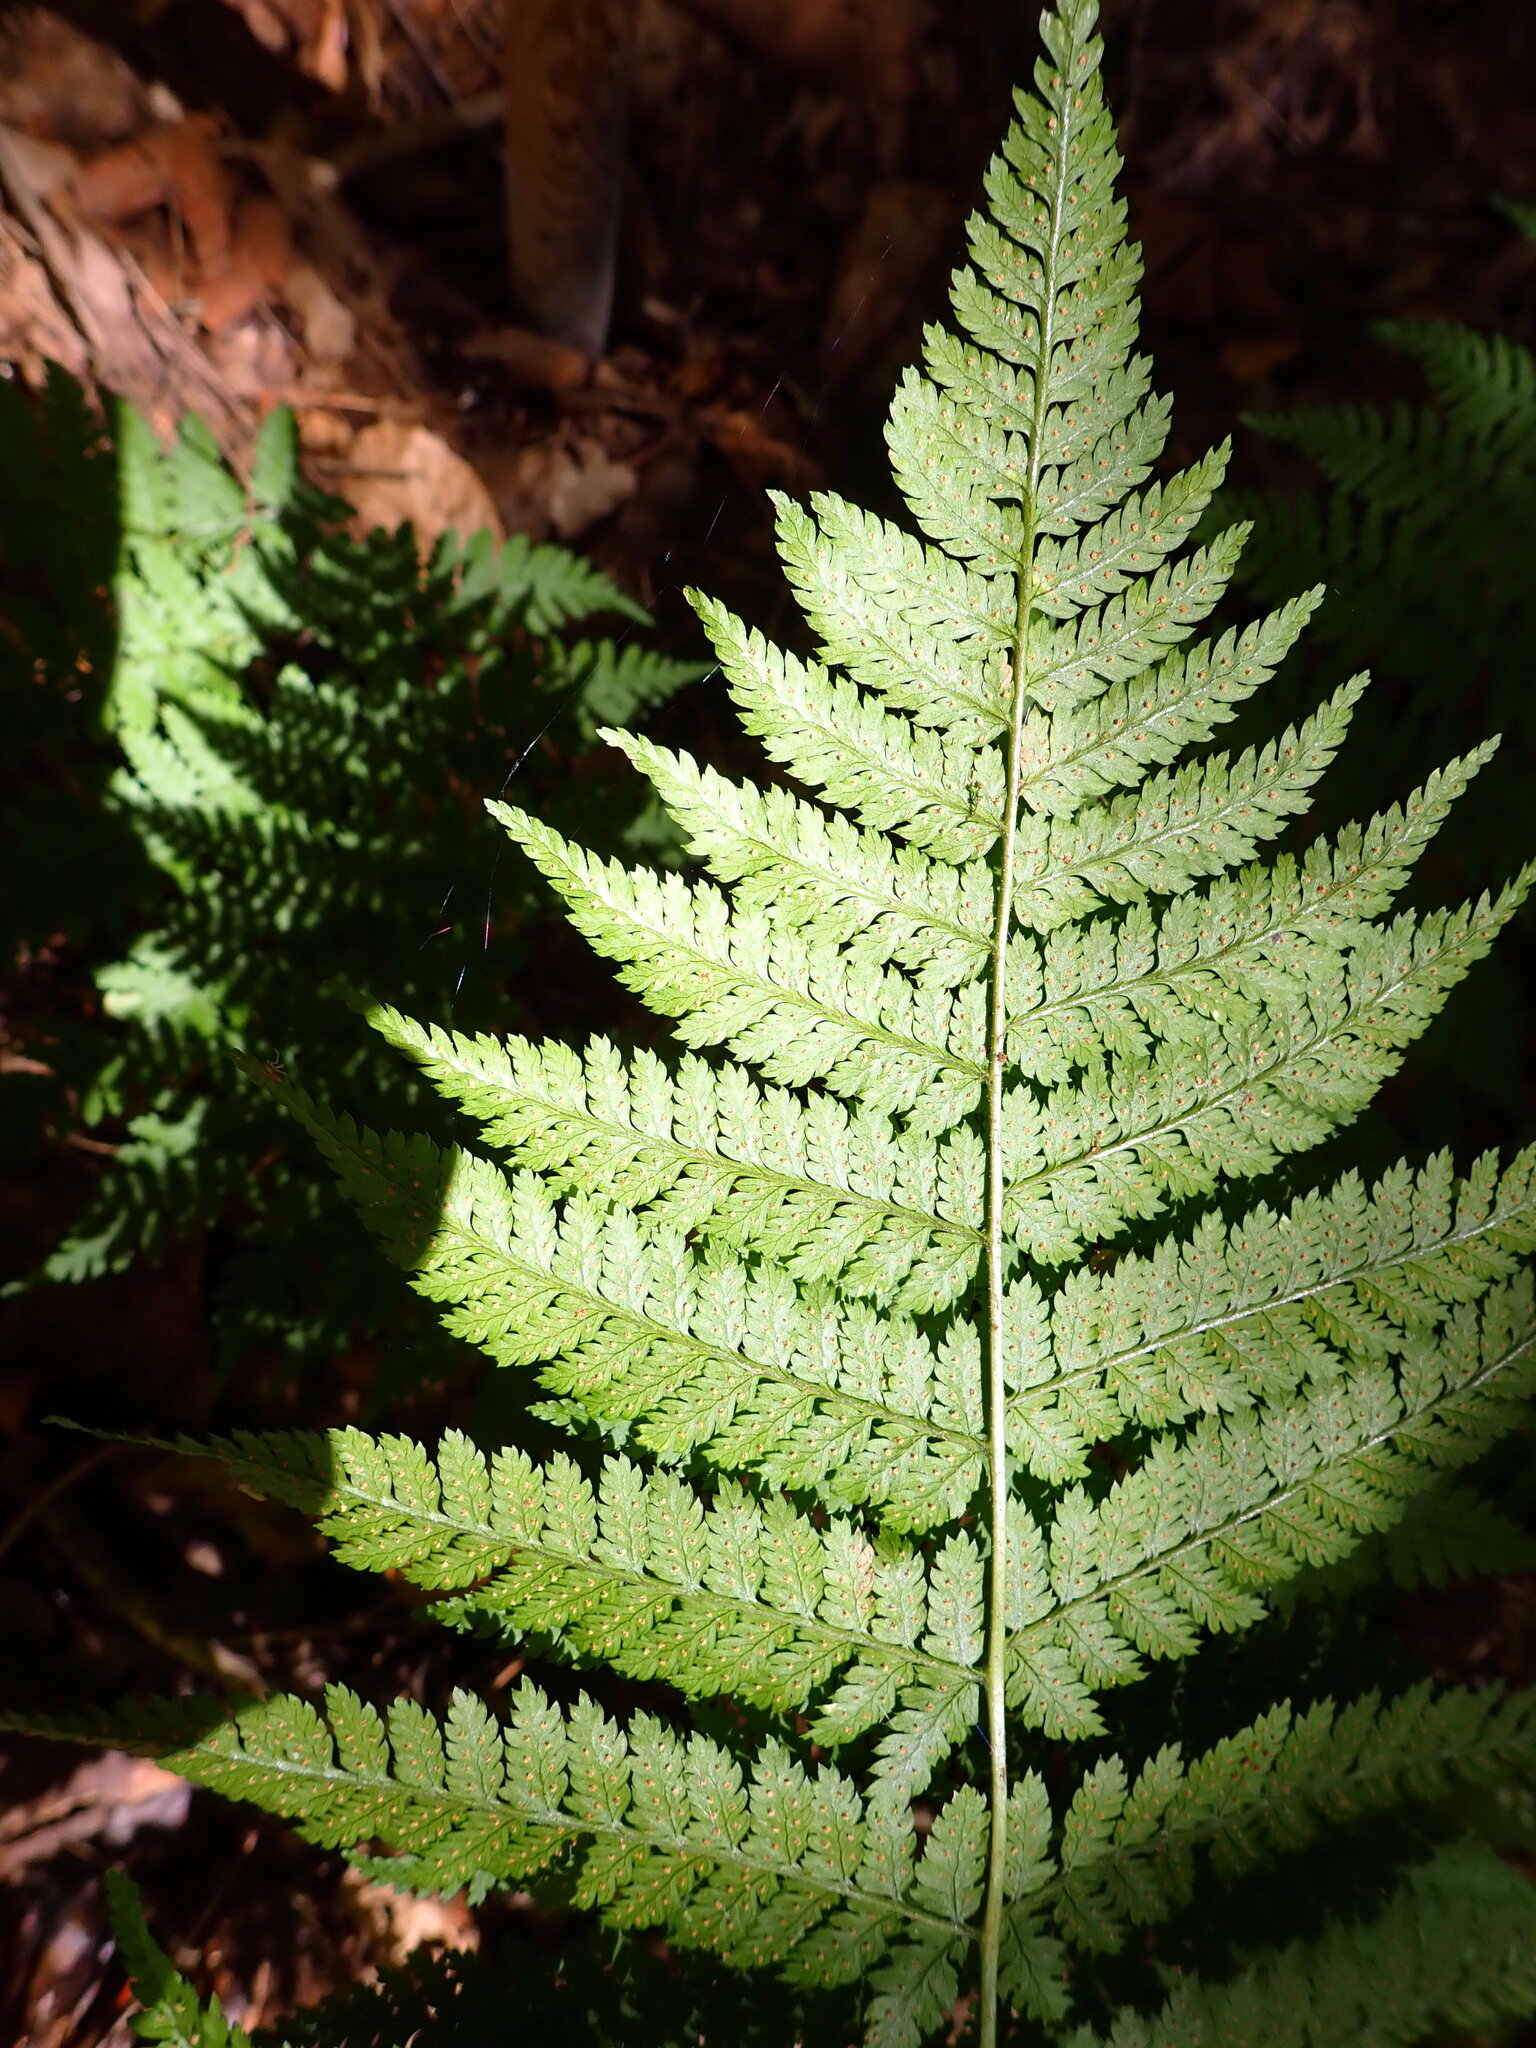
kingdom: Plantae
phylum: Tracheophyta
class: Polypodiopsida
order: Polypodiales
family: Dryopteridaceae
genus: Dryopteris
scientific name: Dryopteris intermedia
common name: Evergreen wood fern
